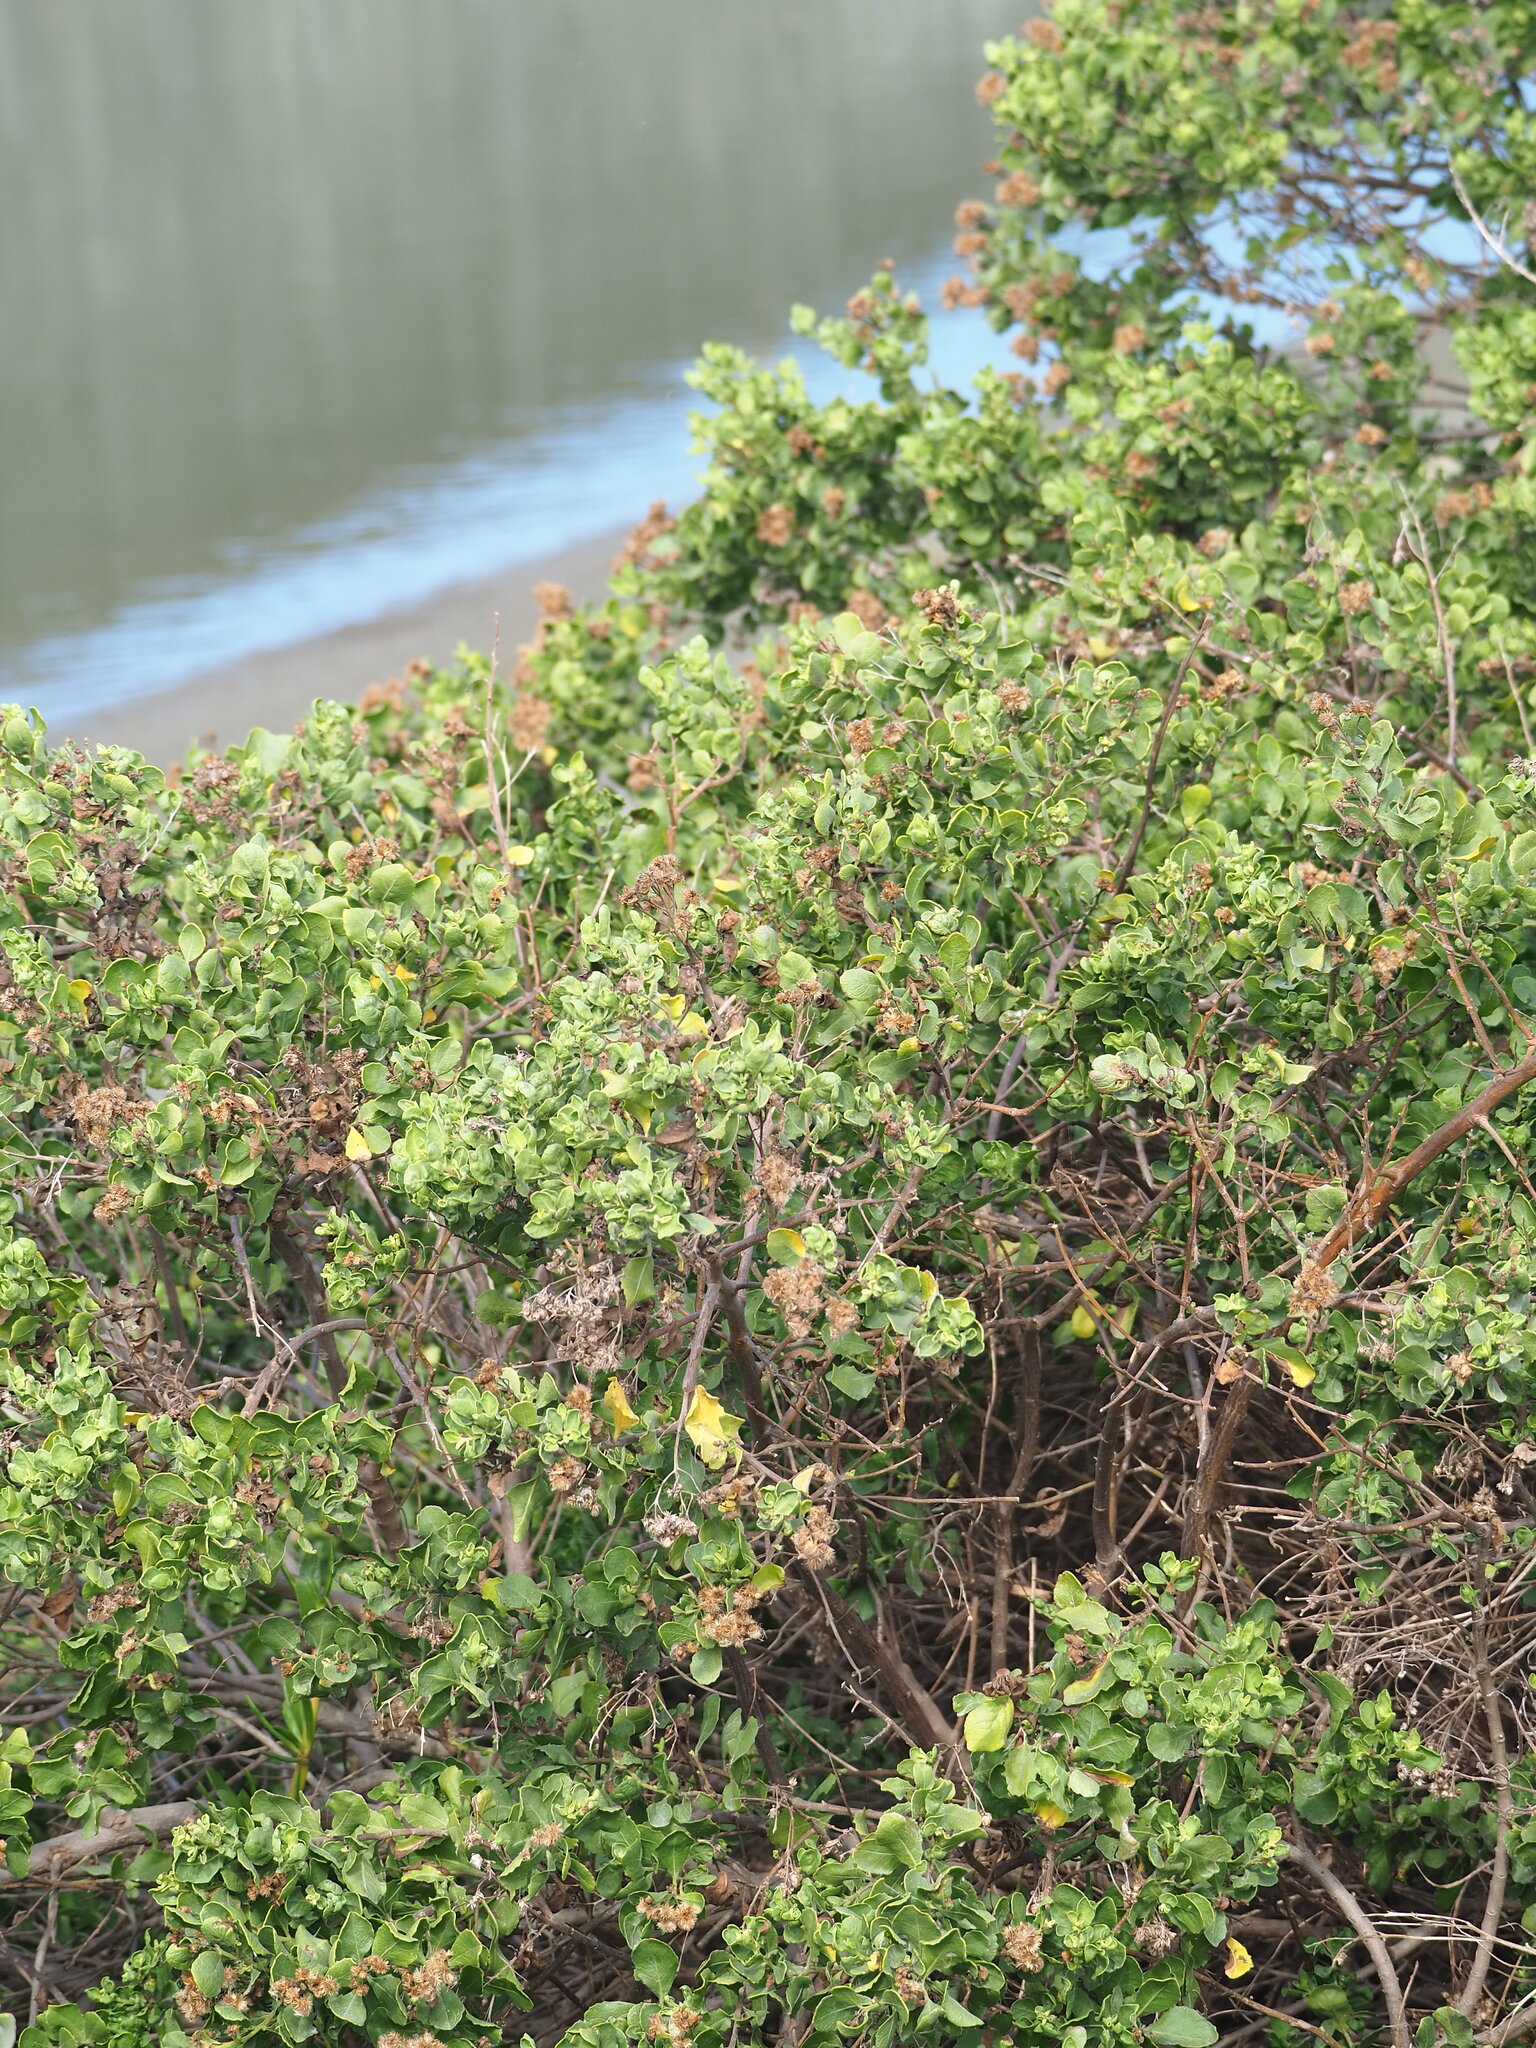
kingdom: Plantae
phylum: Tracheophyta
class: Magnoliopsida
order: Asterales
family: Asteraceae
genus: Pluchea
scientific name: Pluchea indica
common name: Indian fleabane
